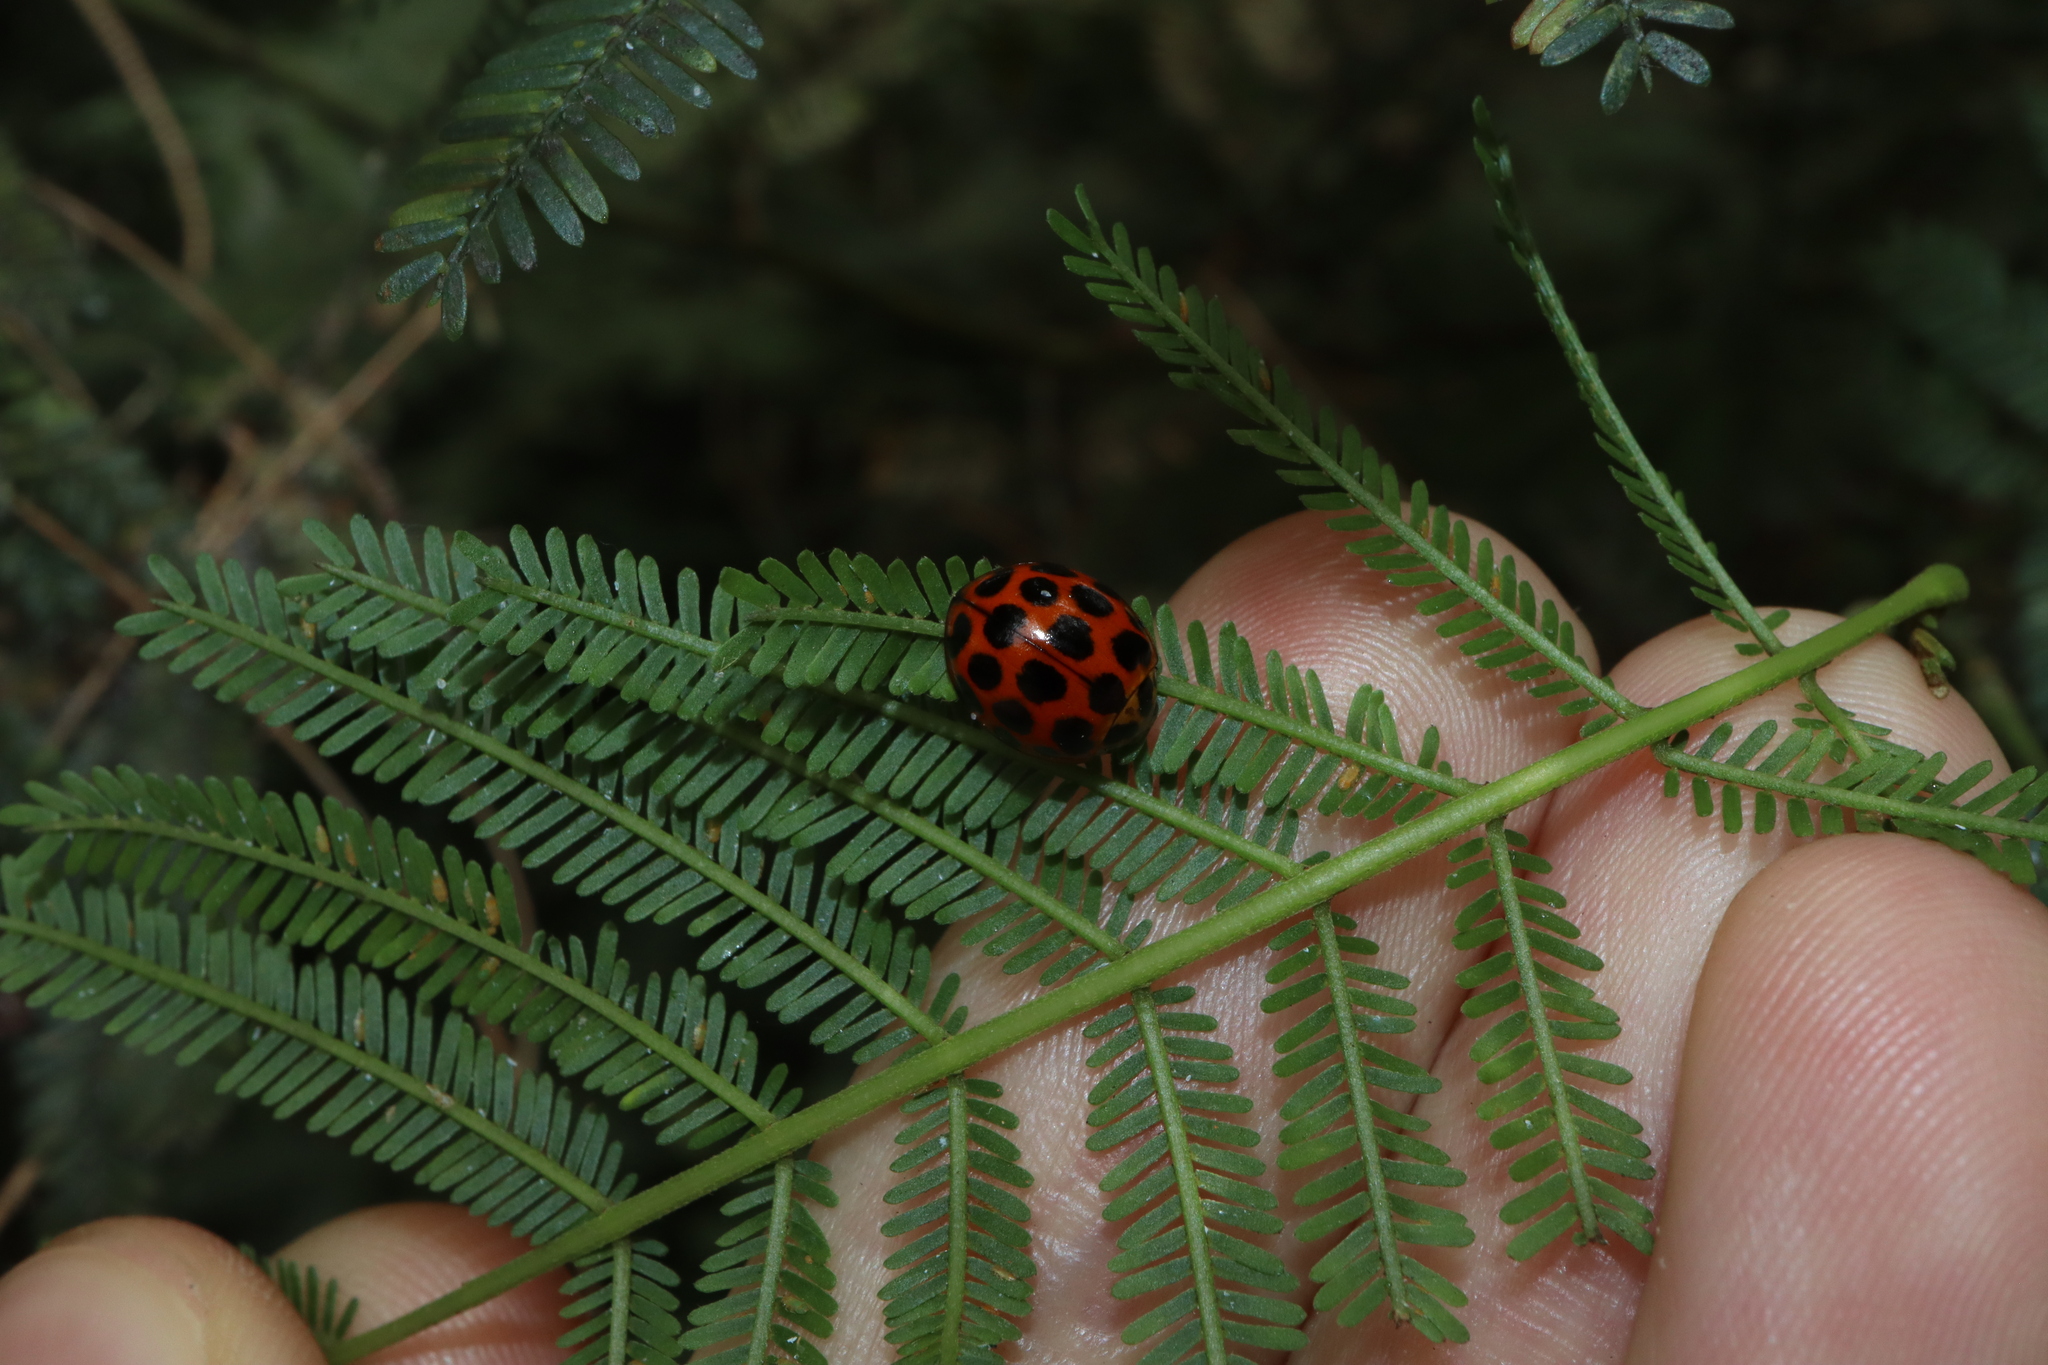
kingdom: Animalia
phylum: Arthropoda
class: Insecta
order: Coleoptera
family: Coccinellidae
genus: Harmonia
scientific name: Harmonia conformis
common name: Common spotted ladybird beetle
